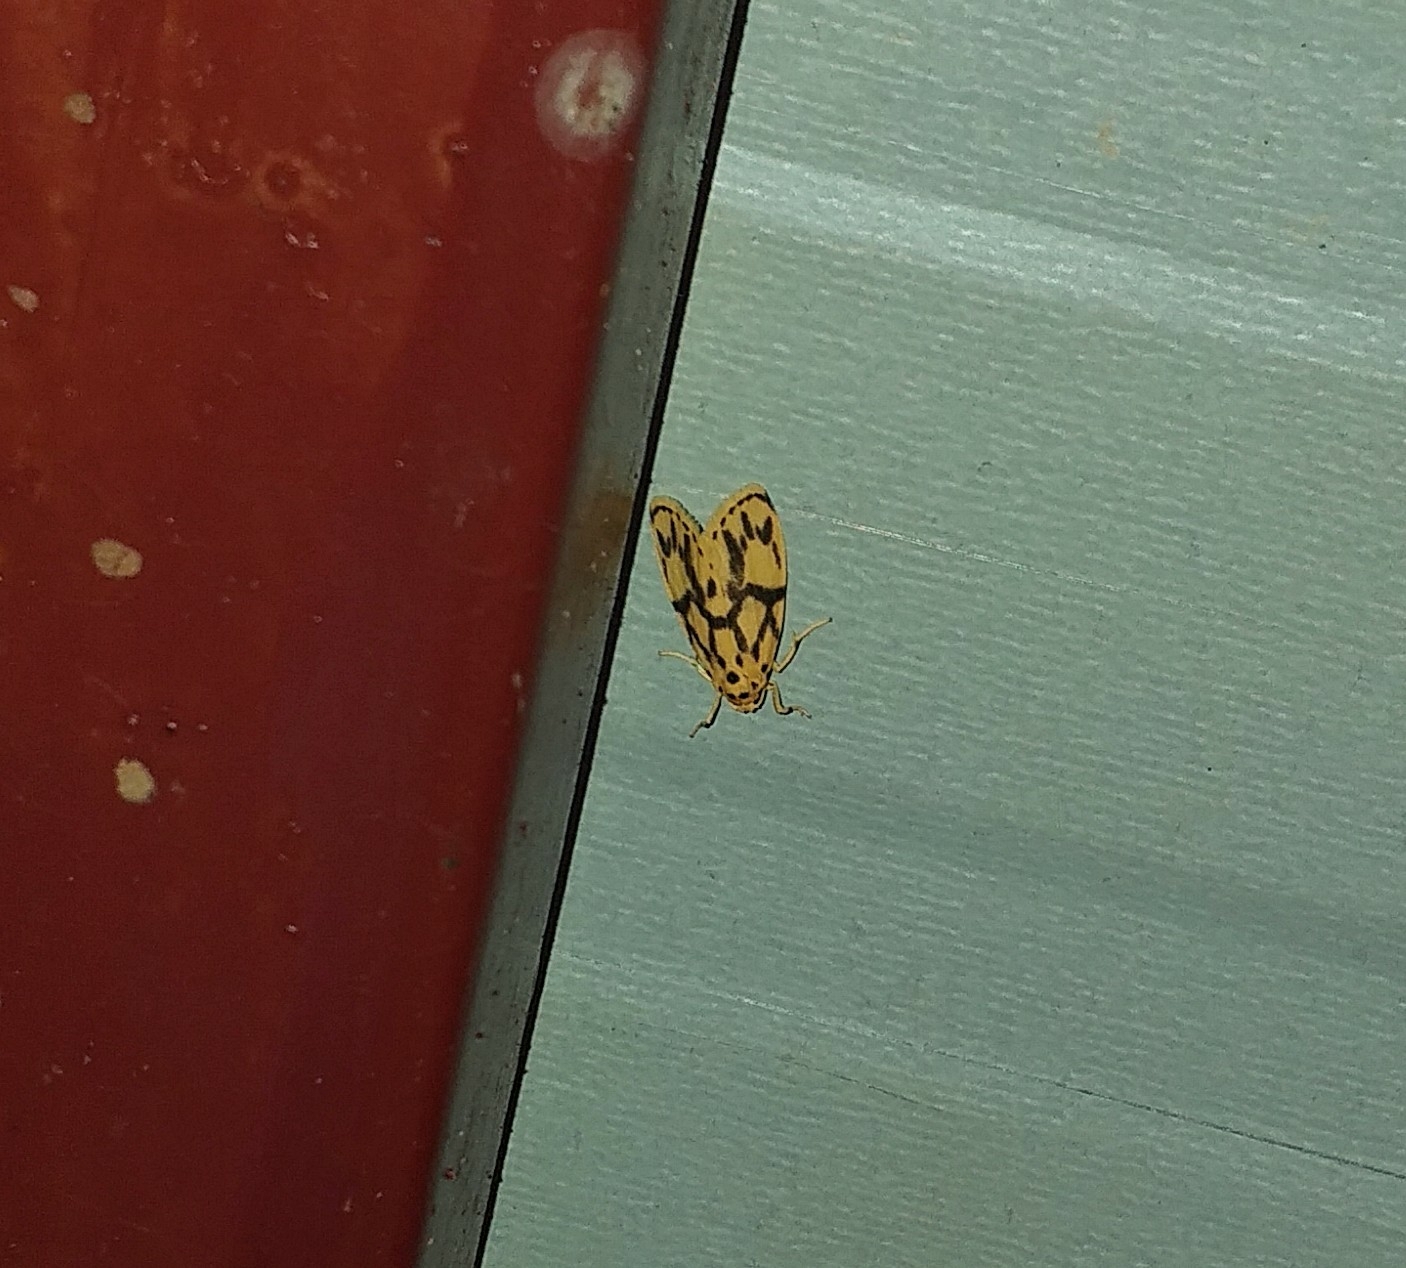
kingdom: Animalia
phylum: Arthropoda
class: Insecta
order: Lepidoptera
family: Erebidae
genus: Miltochrista
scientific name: Miltochrista terminospota
